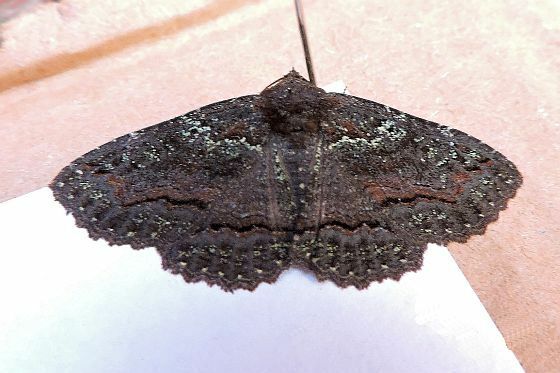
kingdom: Animalia
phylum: Arthropoda
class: Insecta
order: Lepidoptera
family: Erebidae
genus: Zale
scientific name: Zale aeruginosa
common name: Green-dusted zale moth
